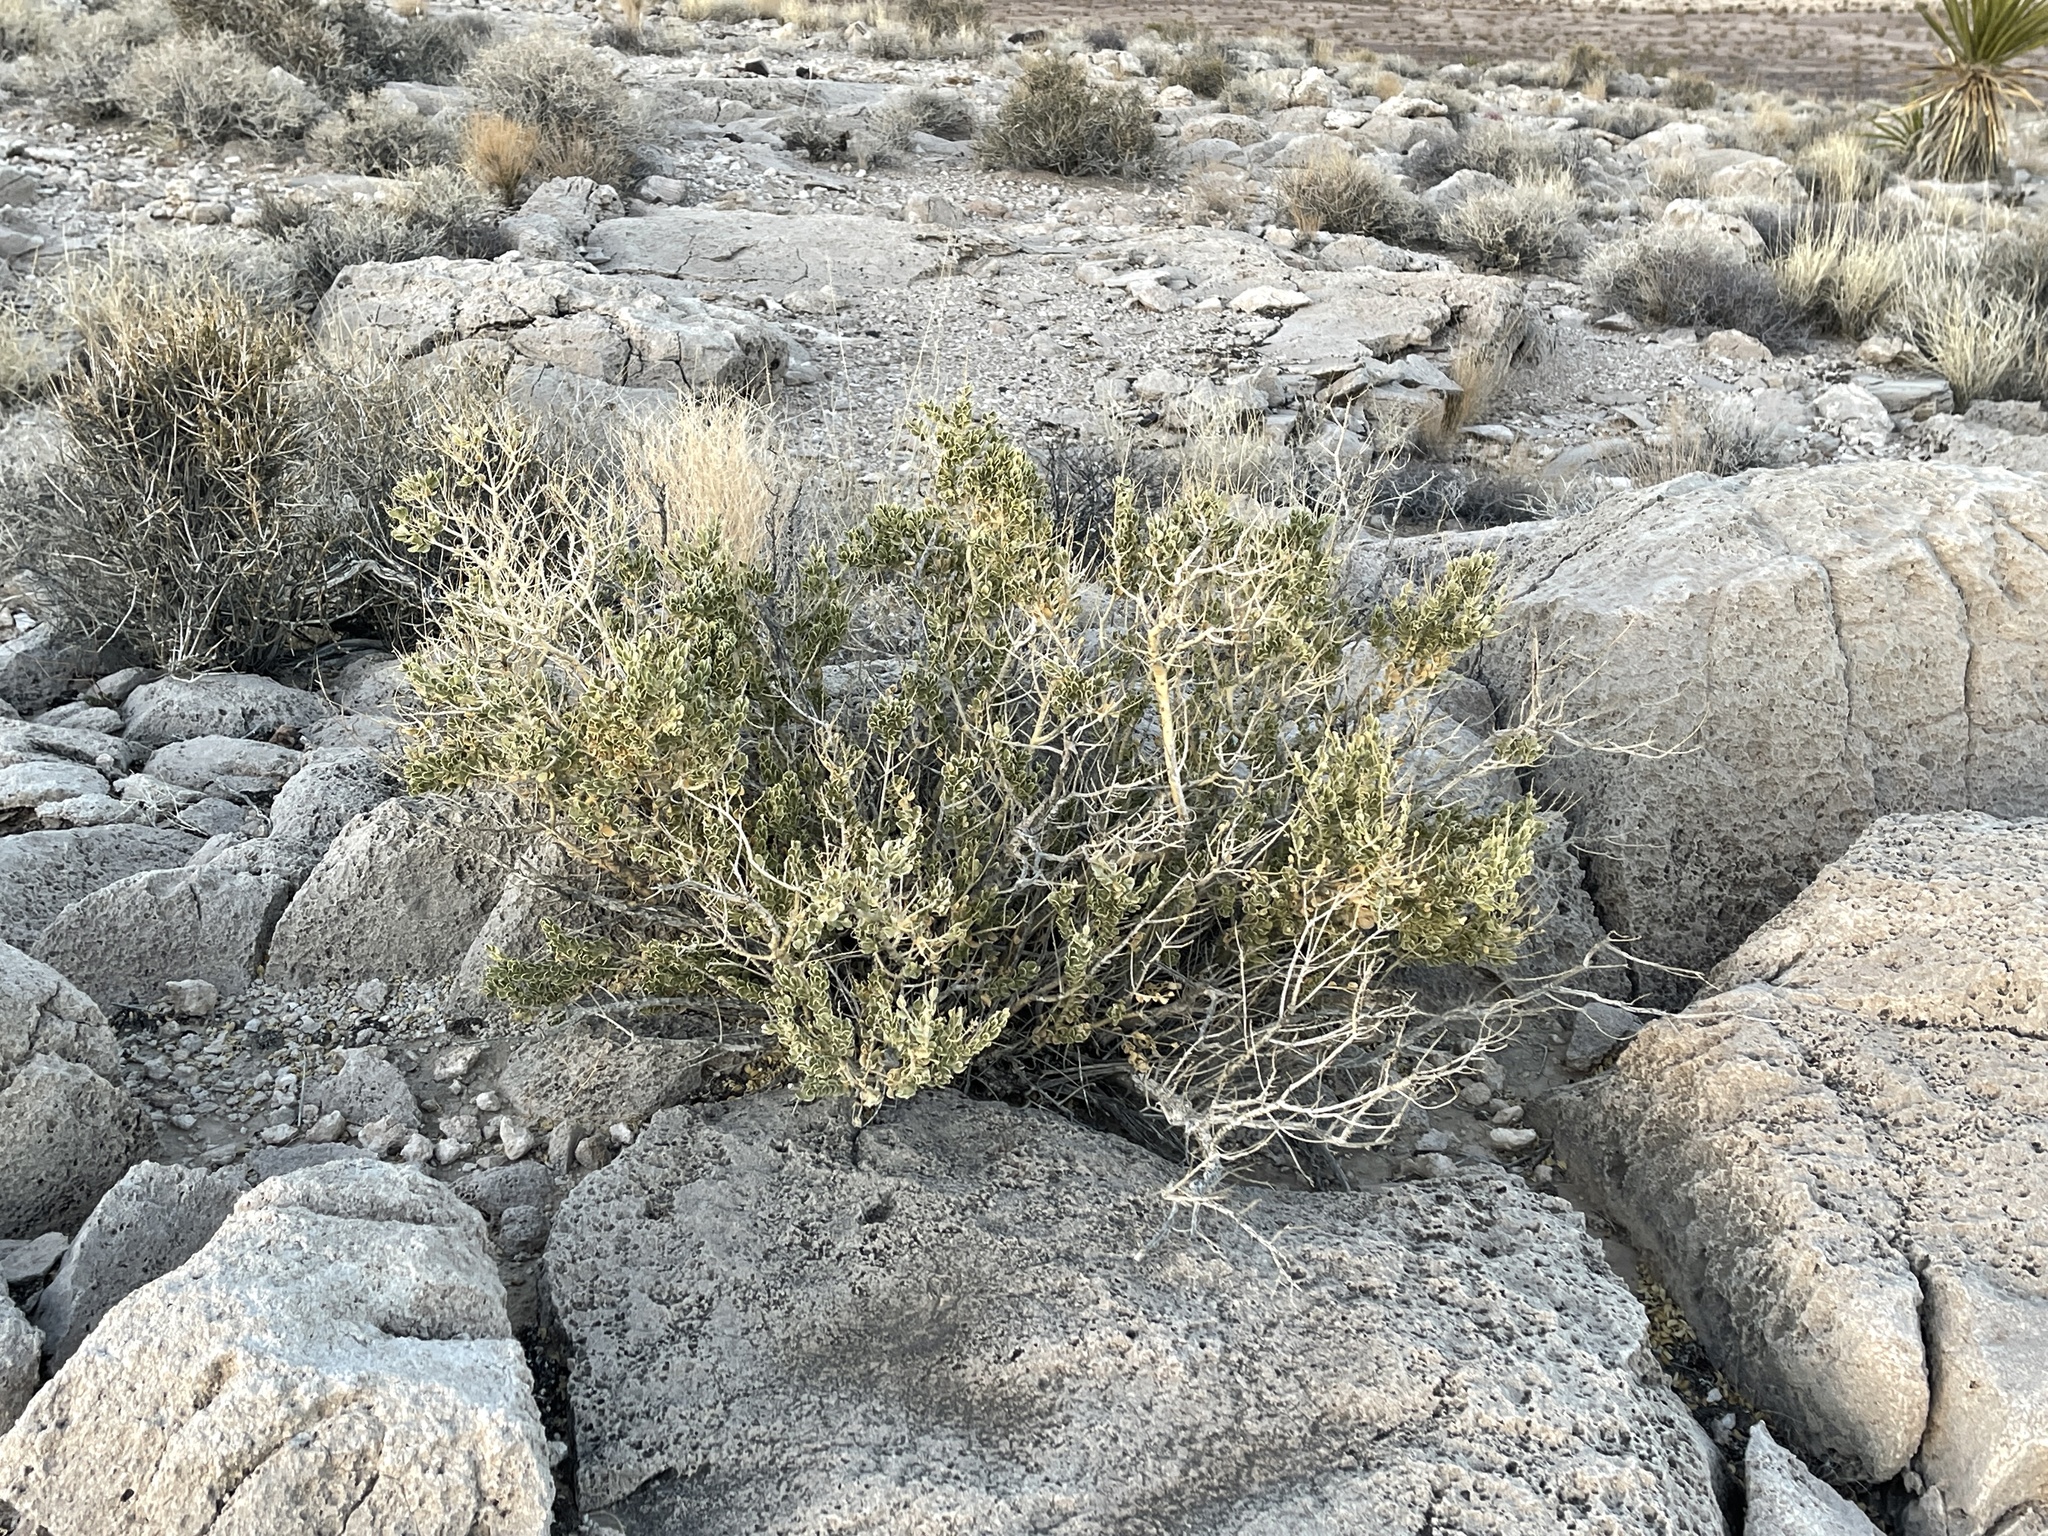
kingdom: Plantae
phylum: Tracheophyta
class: Magnoliopsida
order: Celastrales
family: Celastraceae
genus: Mortonia
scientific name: Mortonia utahensis
